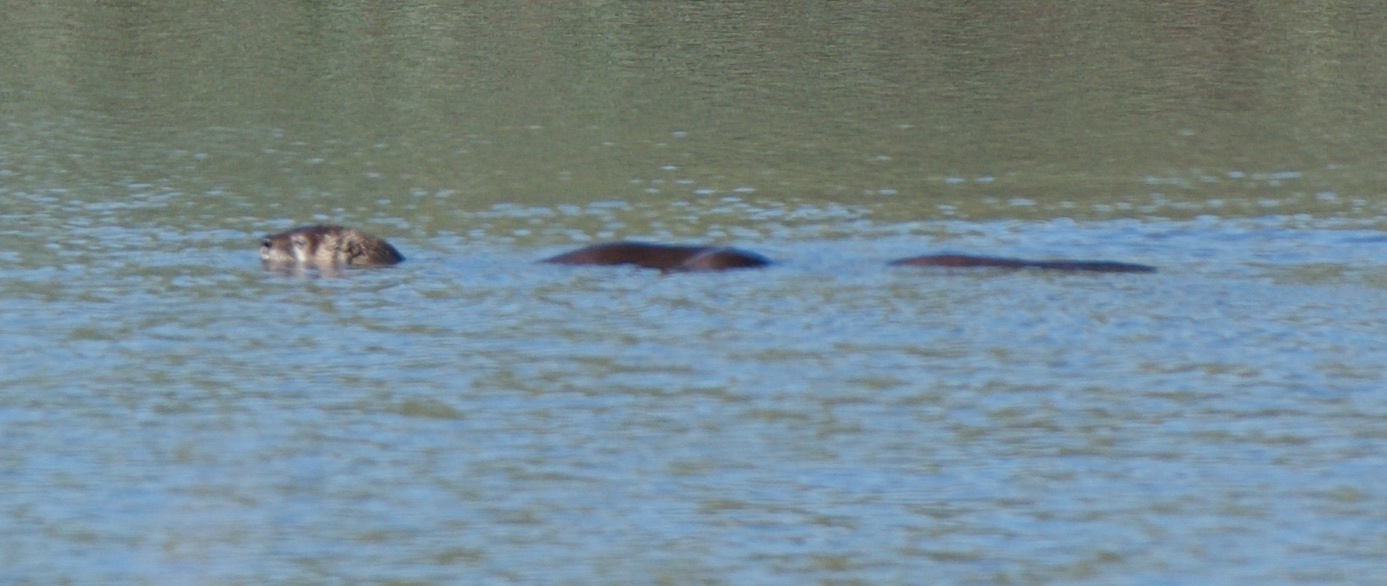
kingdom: Animalia
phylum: Chordata
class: Mammalia
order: Carnivora
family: Mustelidae
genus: Lontra
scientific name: Lontra canadensis
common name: North american river otter
